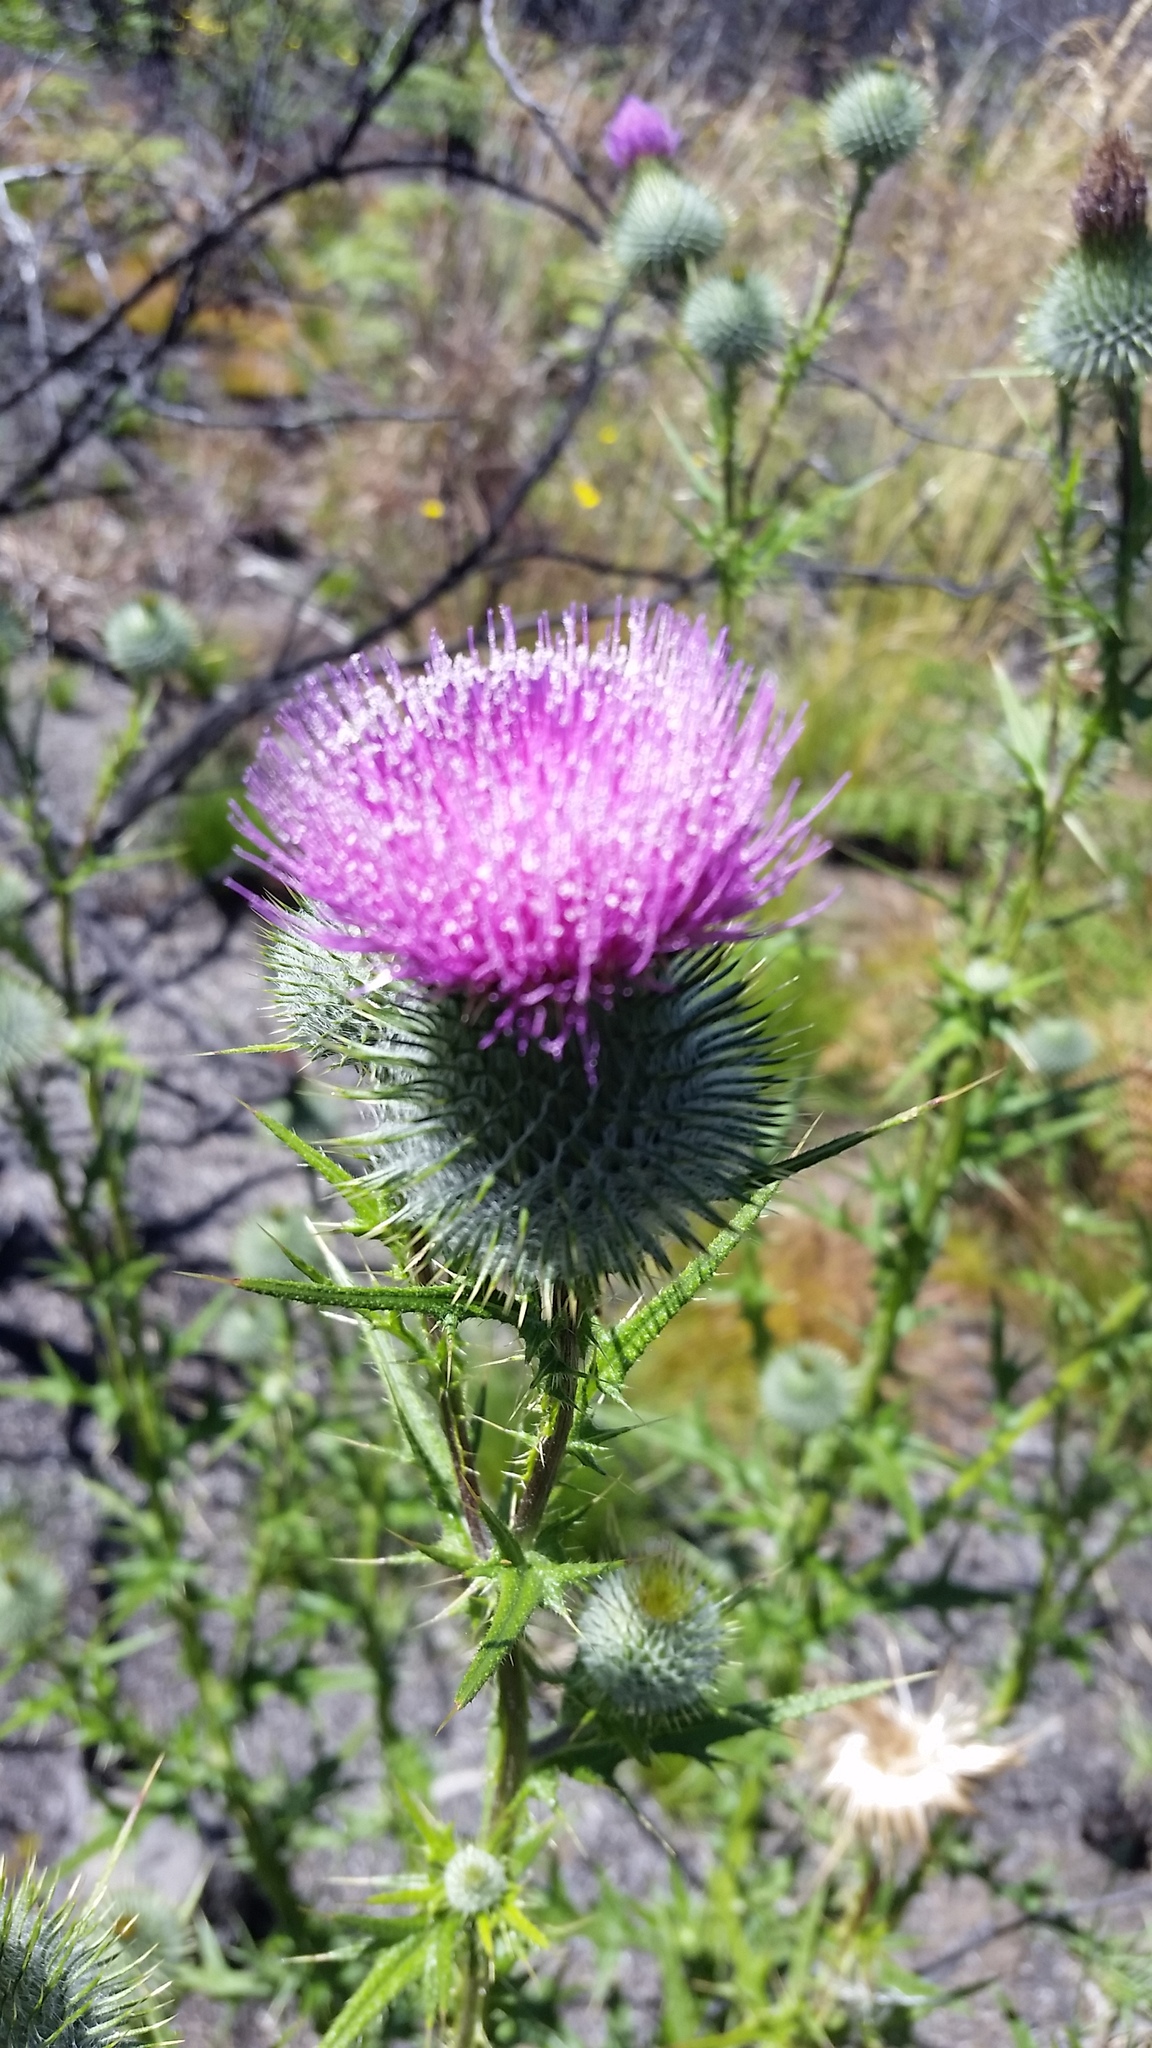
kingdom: Plantae
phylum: Tracheophyta
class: Magnoliopsida
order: Asterales
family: Asteraceae
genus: Cirsium
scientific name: Cirsium vulgare
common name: Bull thistle
